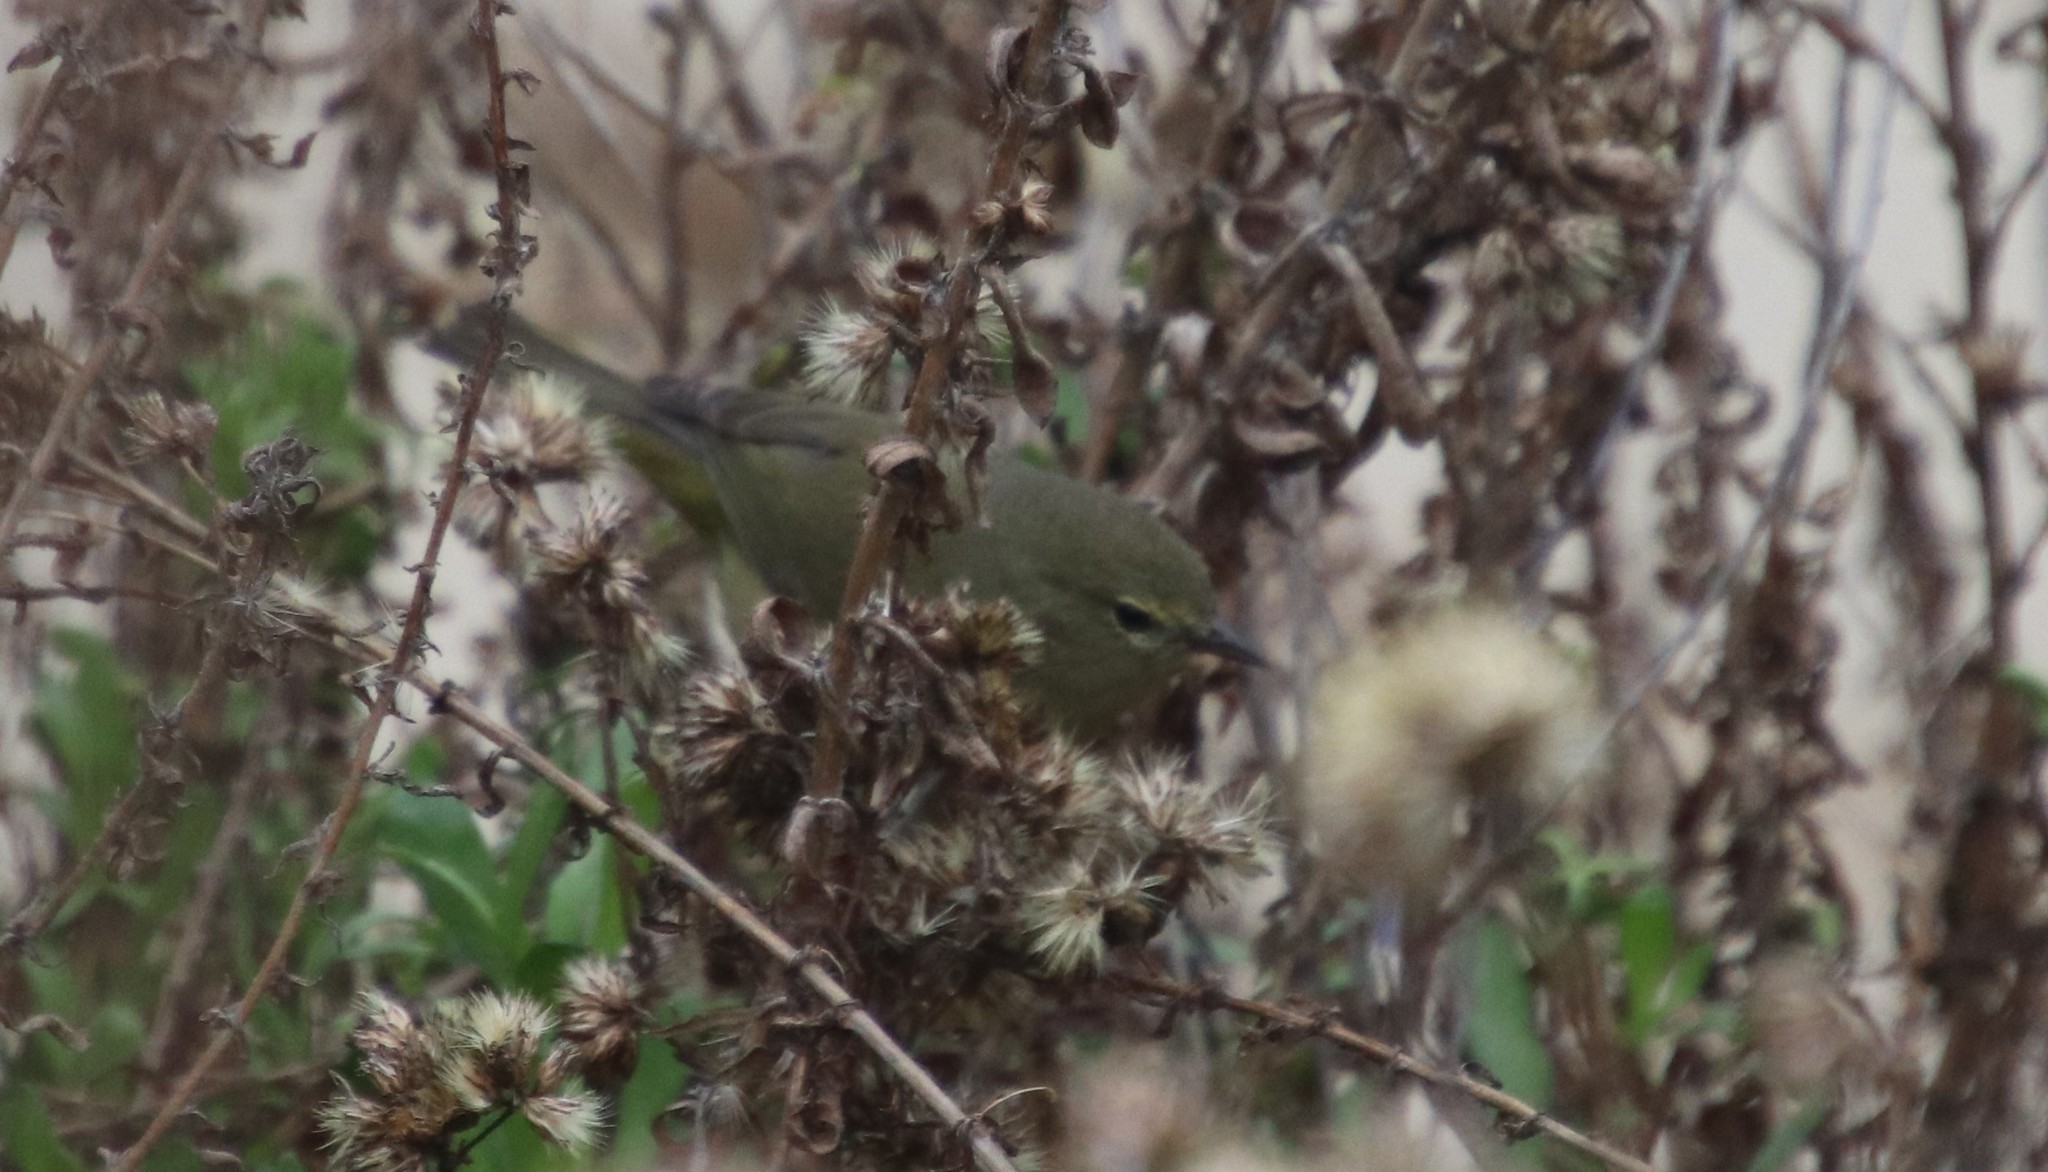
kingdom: Animalia
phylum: Chordata
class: Aves
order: Passeriformes
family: Parulidae
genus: Leiothlypis
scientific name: Leiothlypis celata
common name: Orange-crowned warbler
